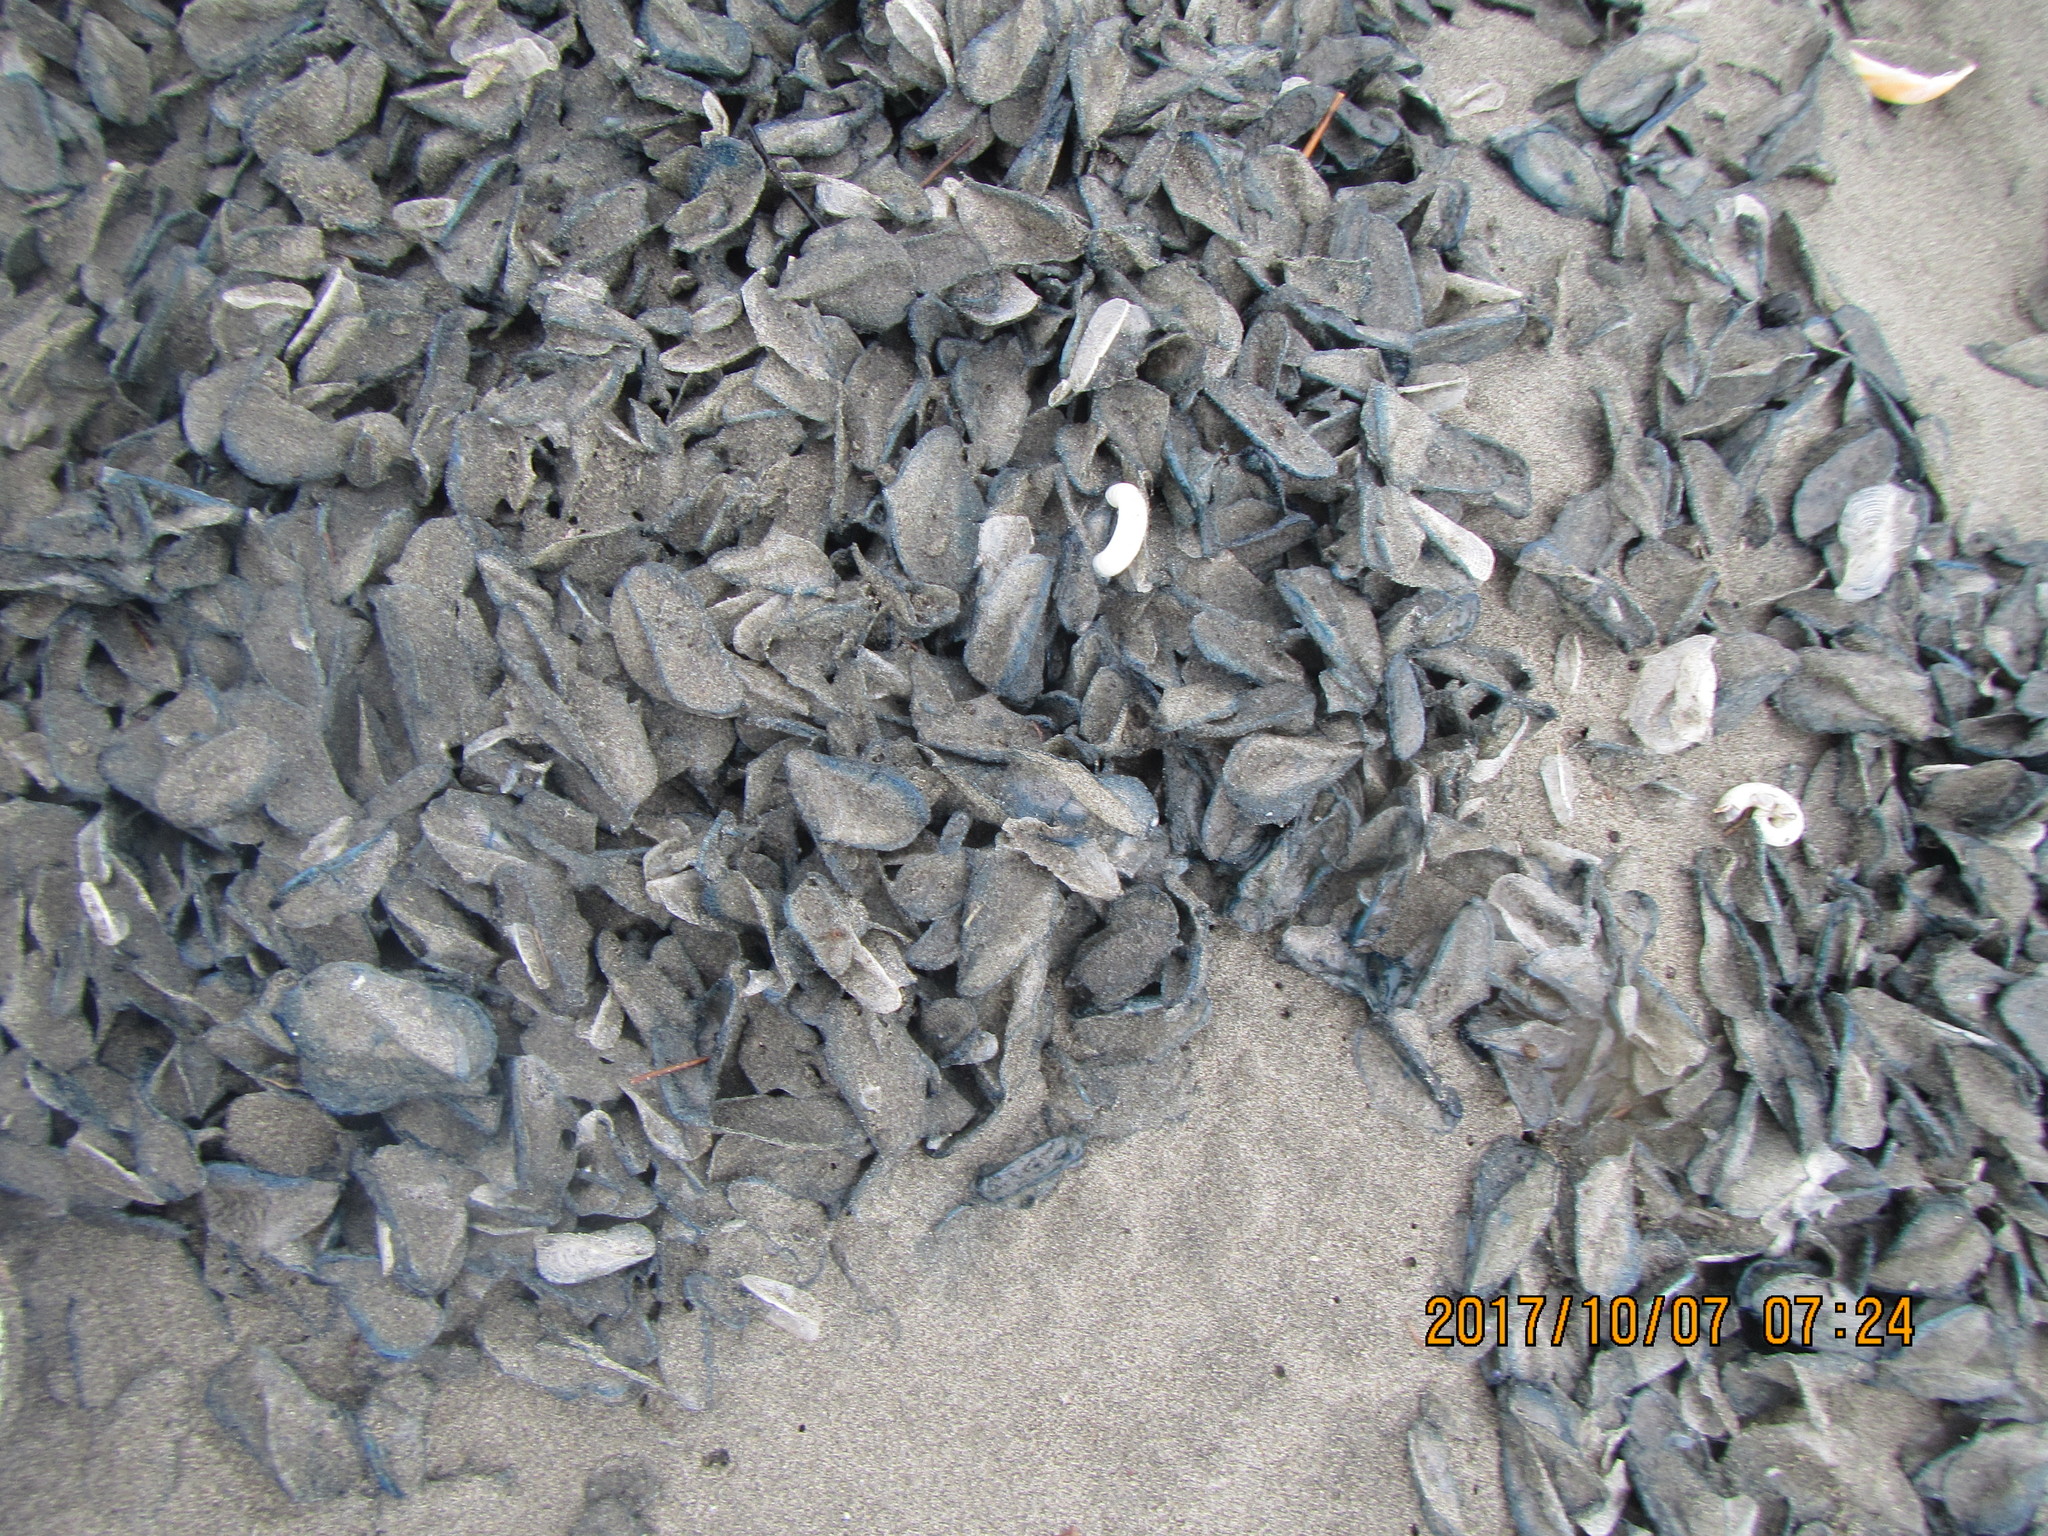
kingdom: Animalia
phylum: Cnidaria
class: Hydrozoa
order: Anthoathecata
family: Porpitidae
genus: Velella
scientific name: Velella velella
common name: By-the-wind-sailor
